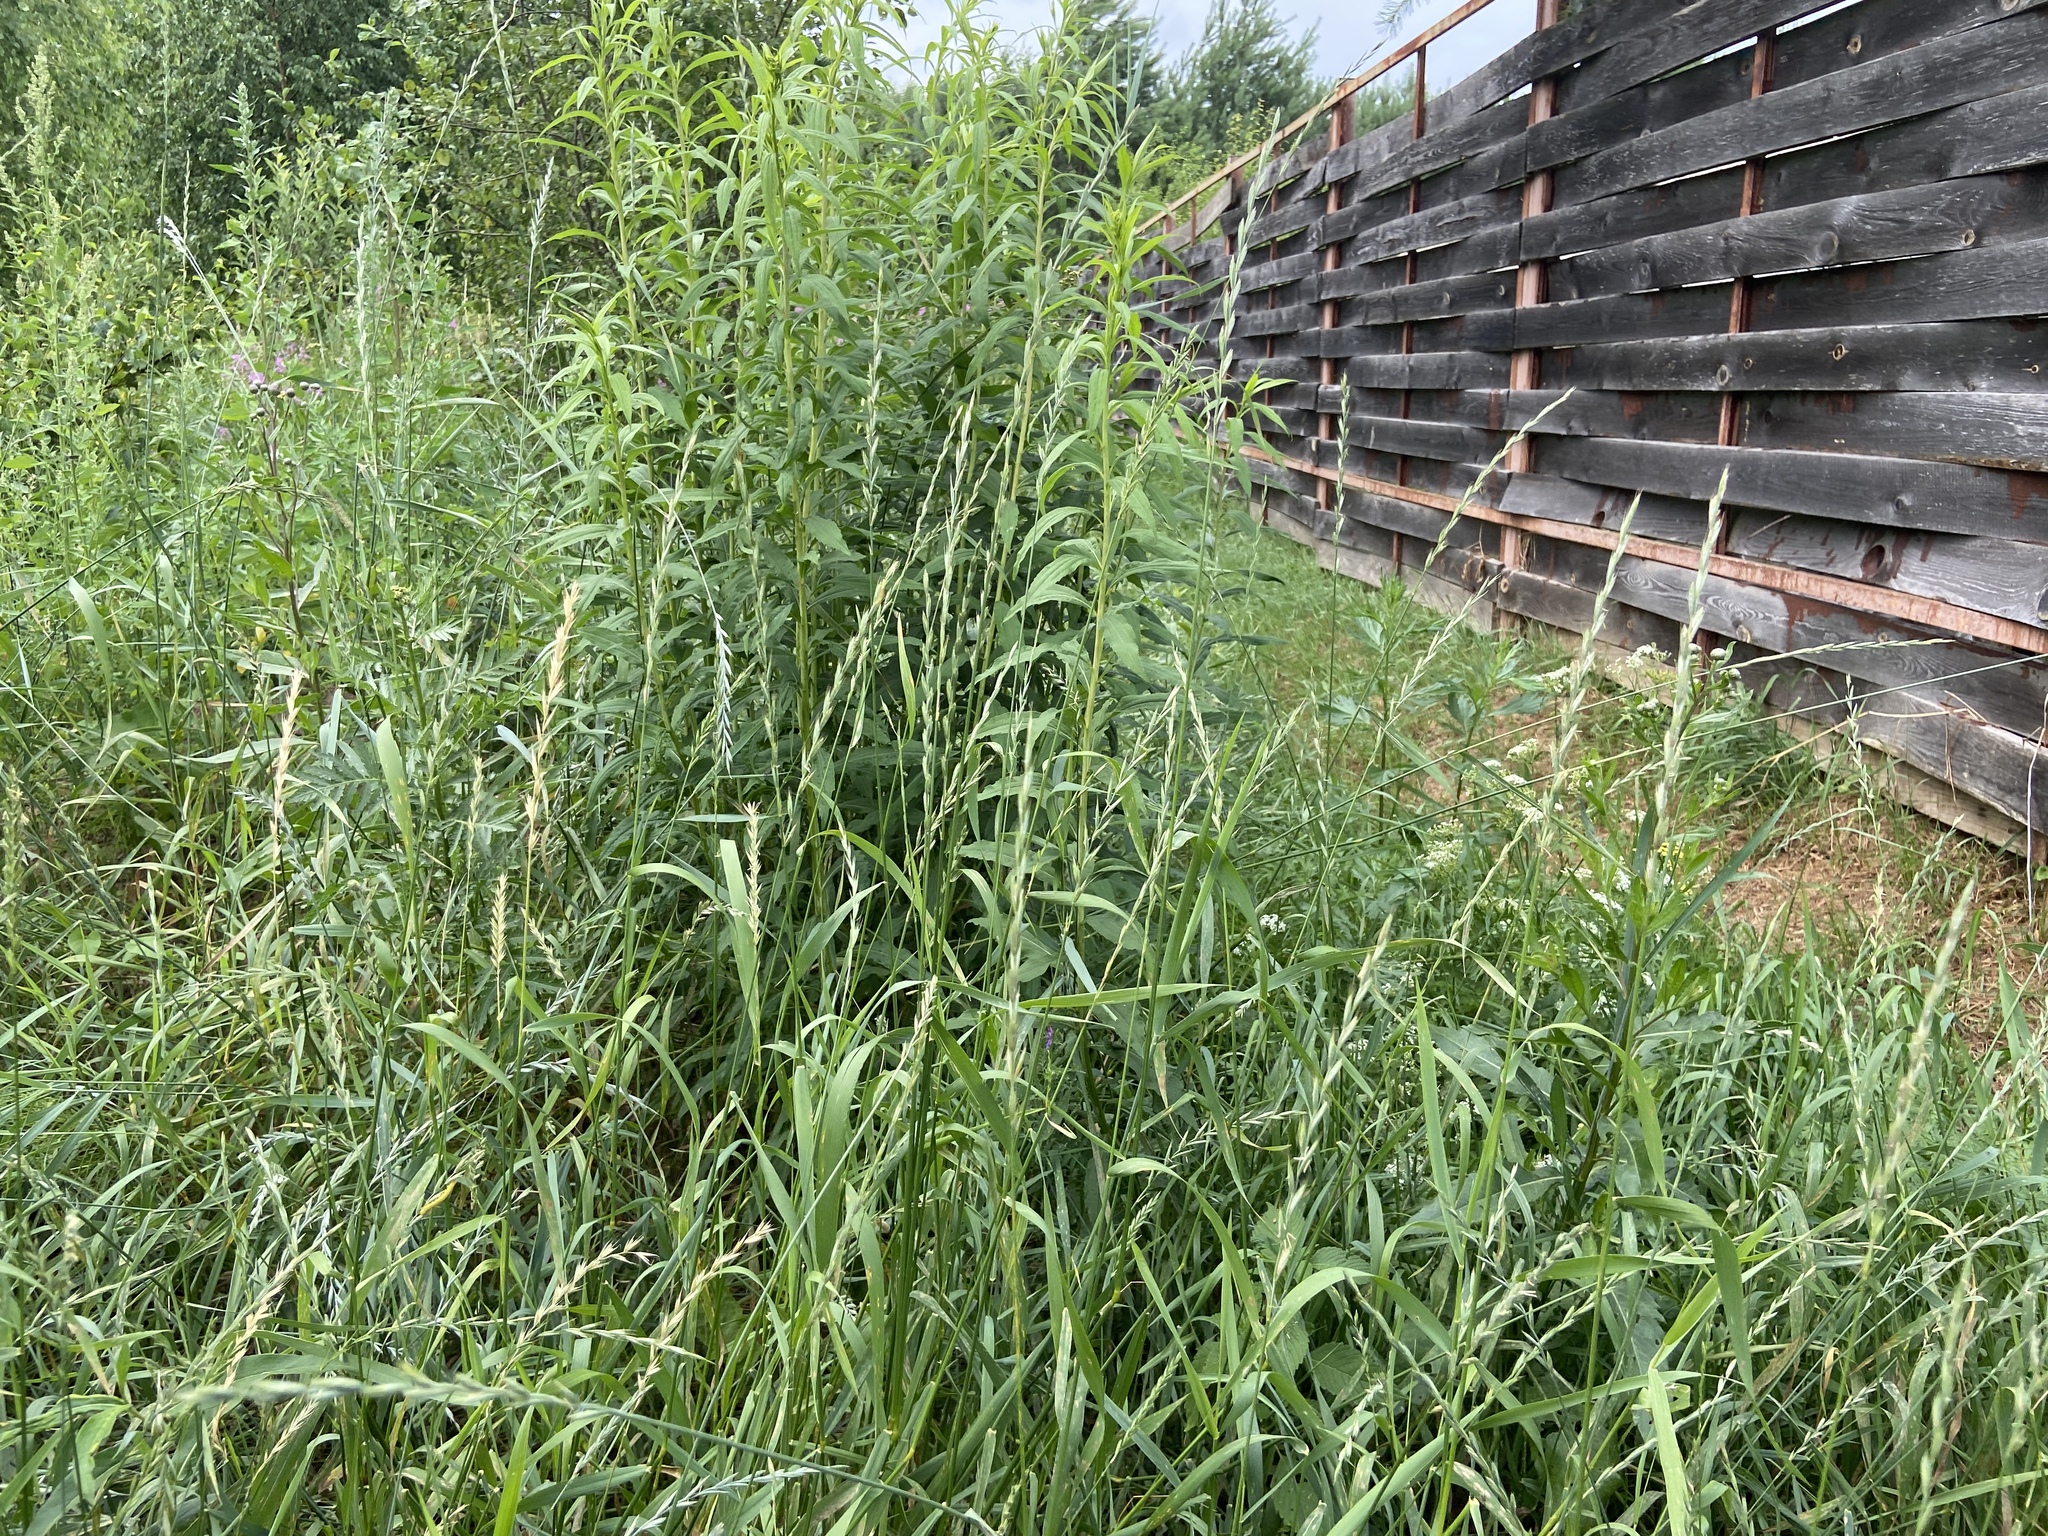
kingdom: Plantae
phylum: Tracheophyta
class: Liliopsida
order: Poales
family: Poaceae
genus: Elymus
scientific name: Elymus repens
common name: Quackgrass
